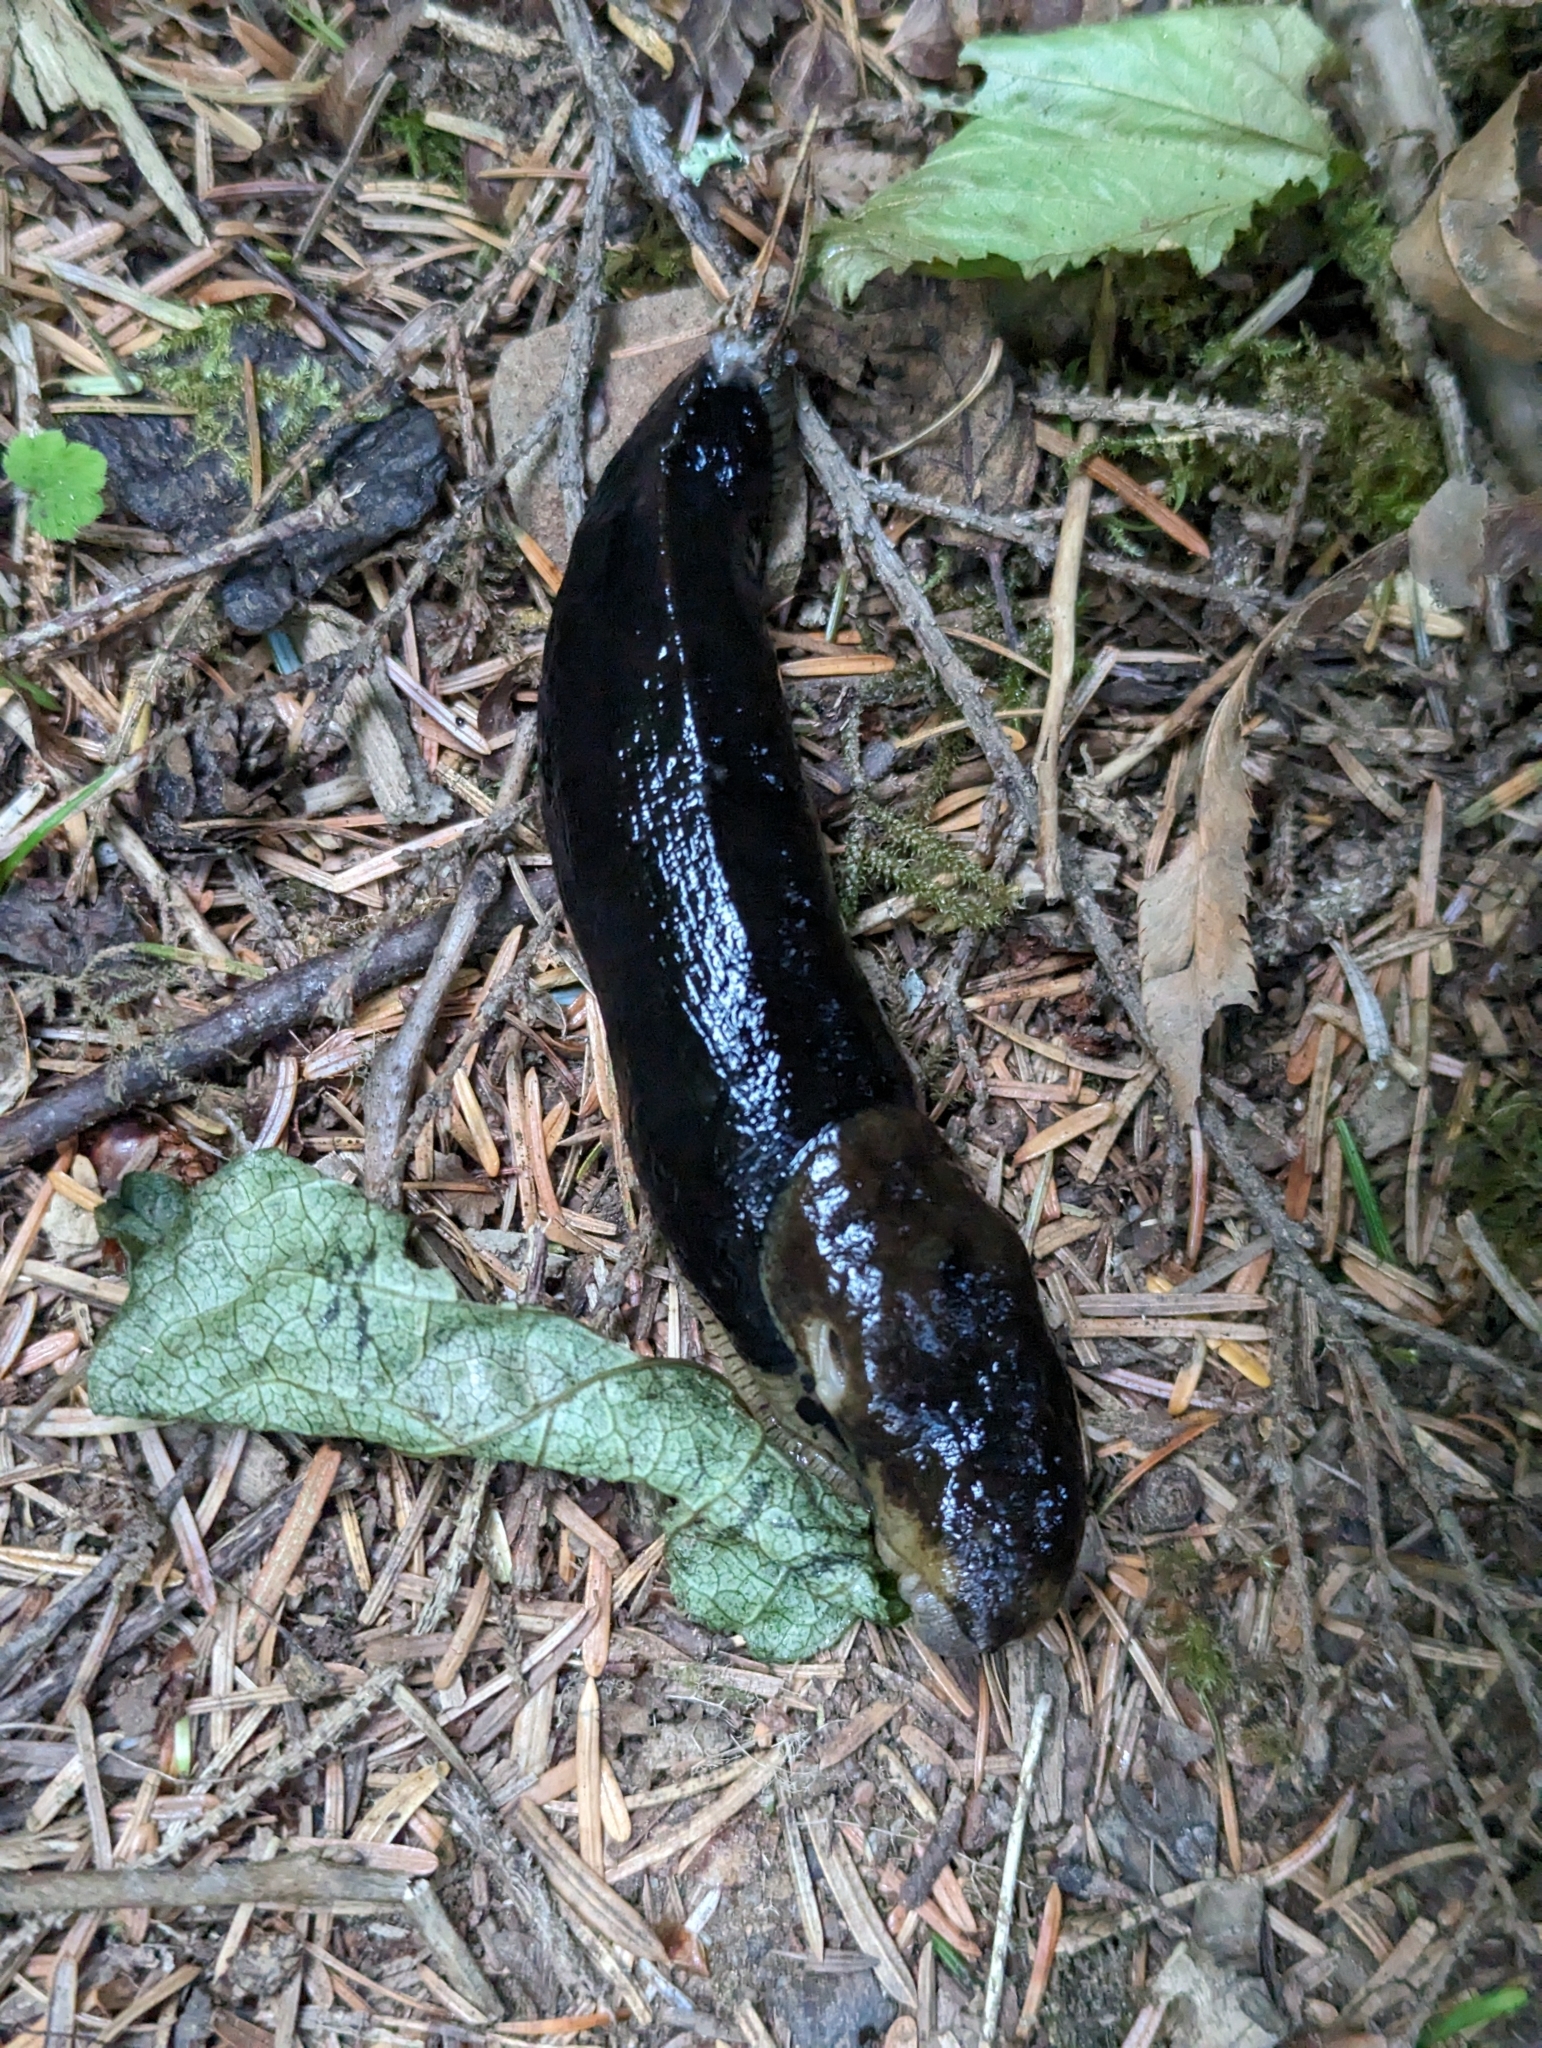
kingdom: Animalia
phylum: Mollusca
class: Gastropoda
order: Stylommatophora
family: Ariolimacidae
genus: Ariolimax
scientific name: Ariolimax columbianus
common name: Pacific banana slug
